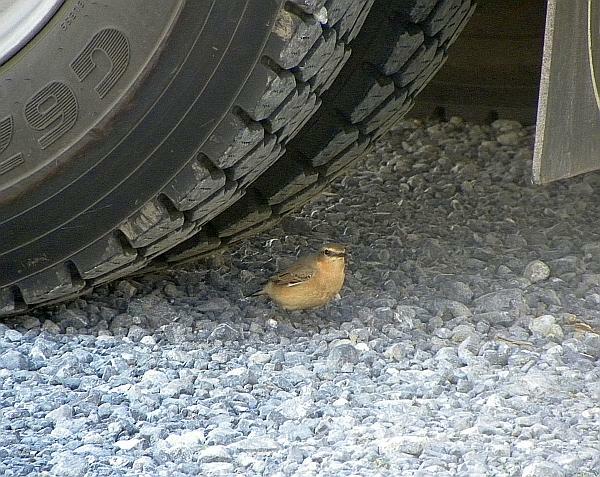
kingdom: Animalia
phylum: Chordata
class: Aves
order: Passeriformes
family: Muscicapidae
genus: Oenanthe
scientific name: Oenanthe oenanthe
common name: Northern wheatear
